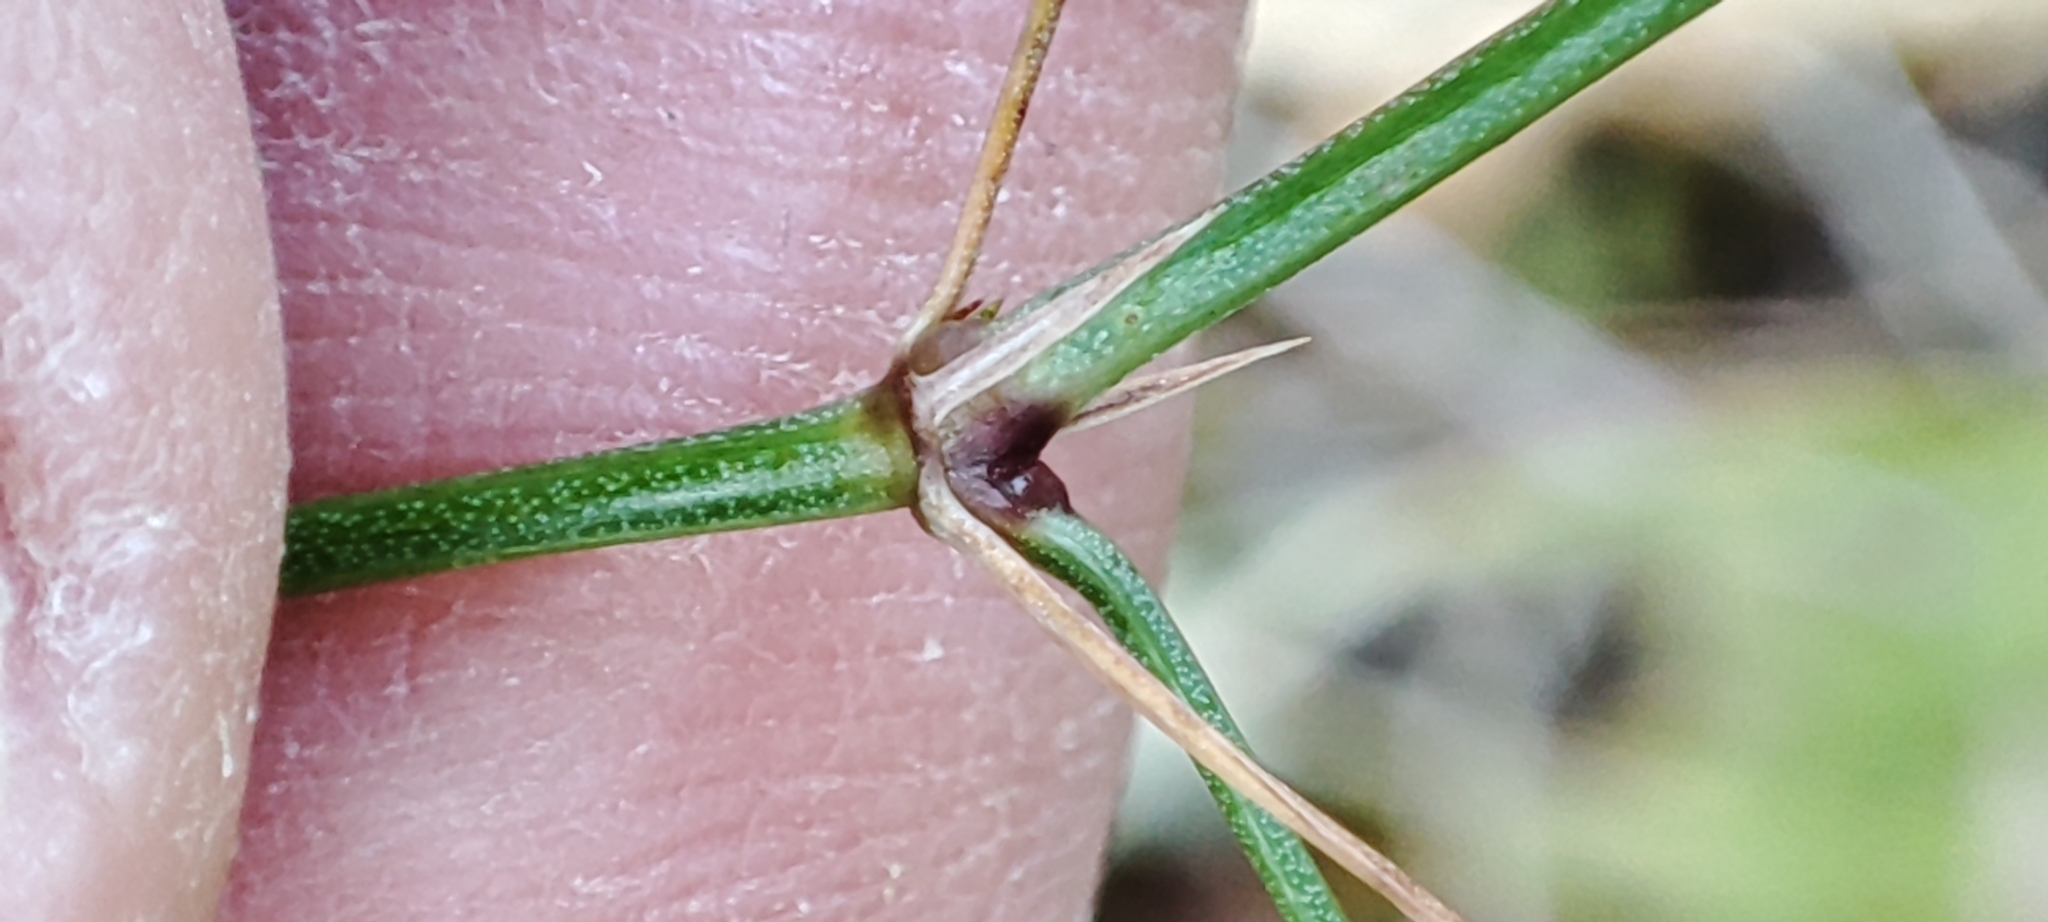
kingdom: Plantae
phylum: Tracheophyta
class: Magnoliopsida
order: Gentianales
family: Rubiaceae
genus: Cynanchica
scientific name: Cynanchica pyrenaica
